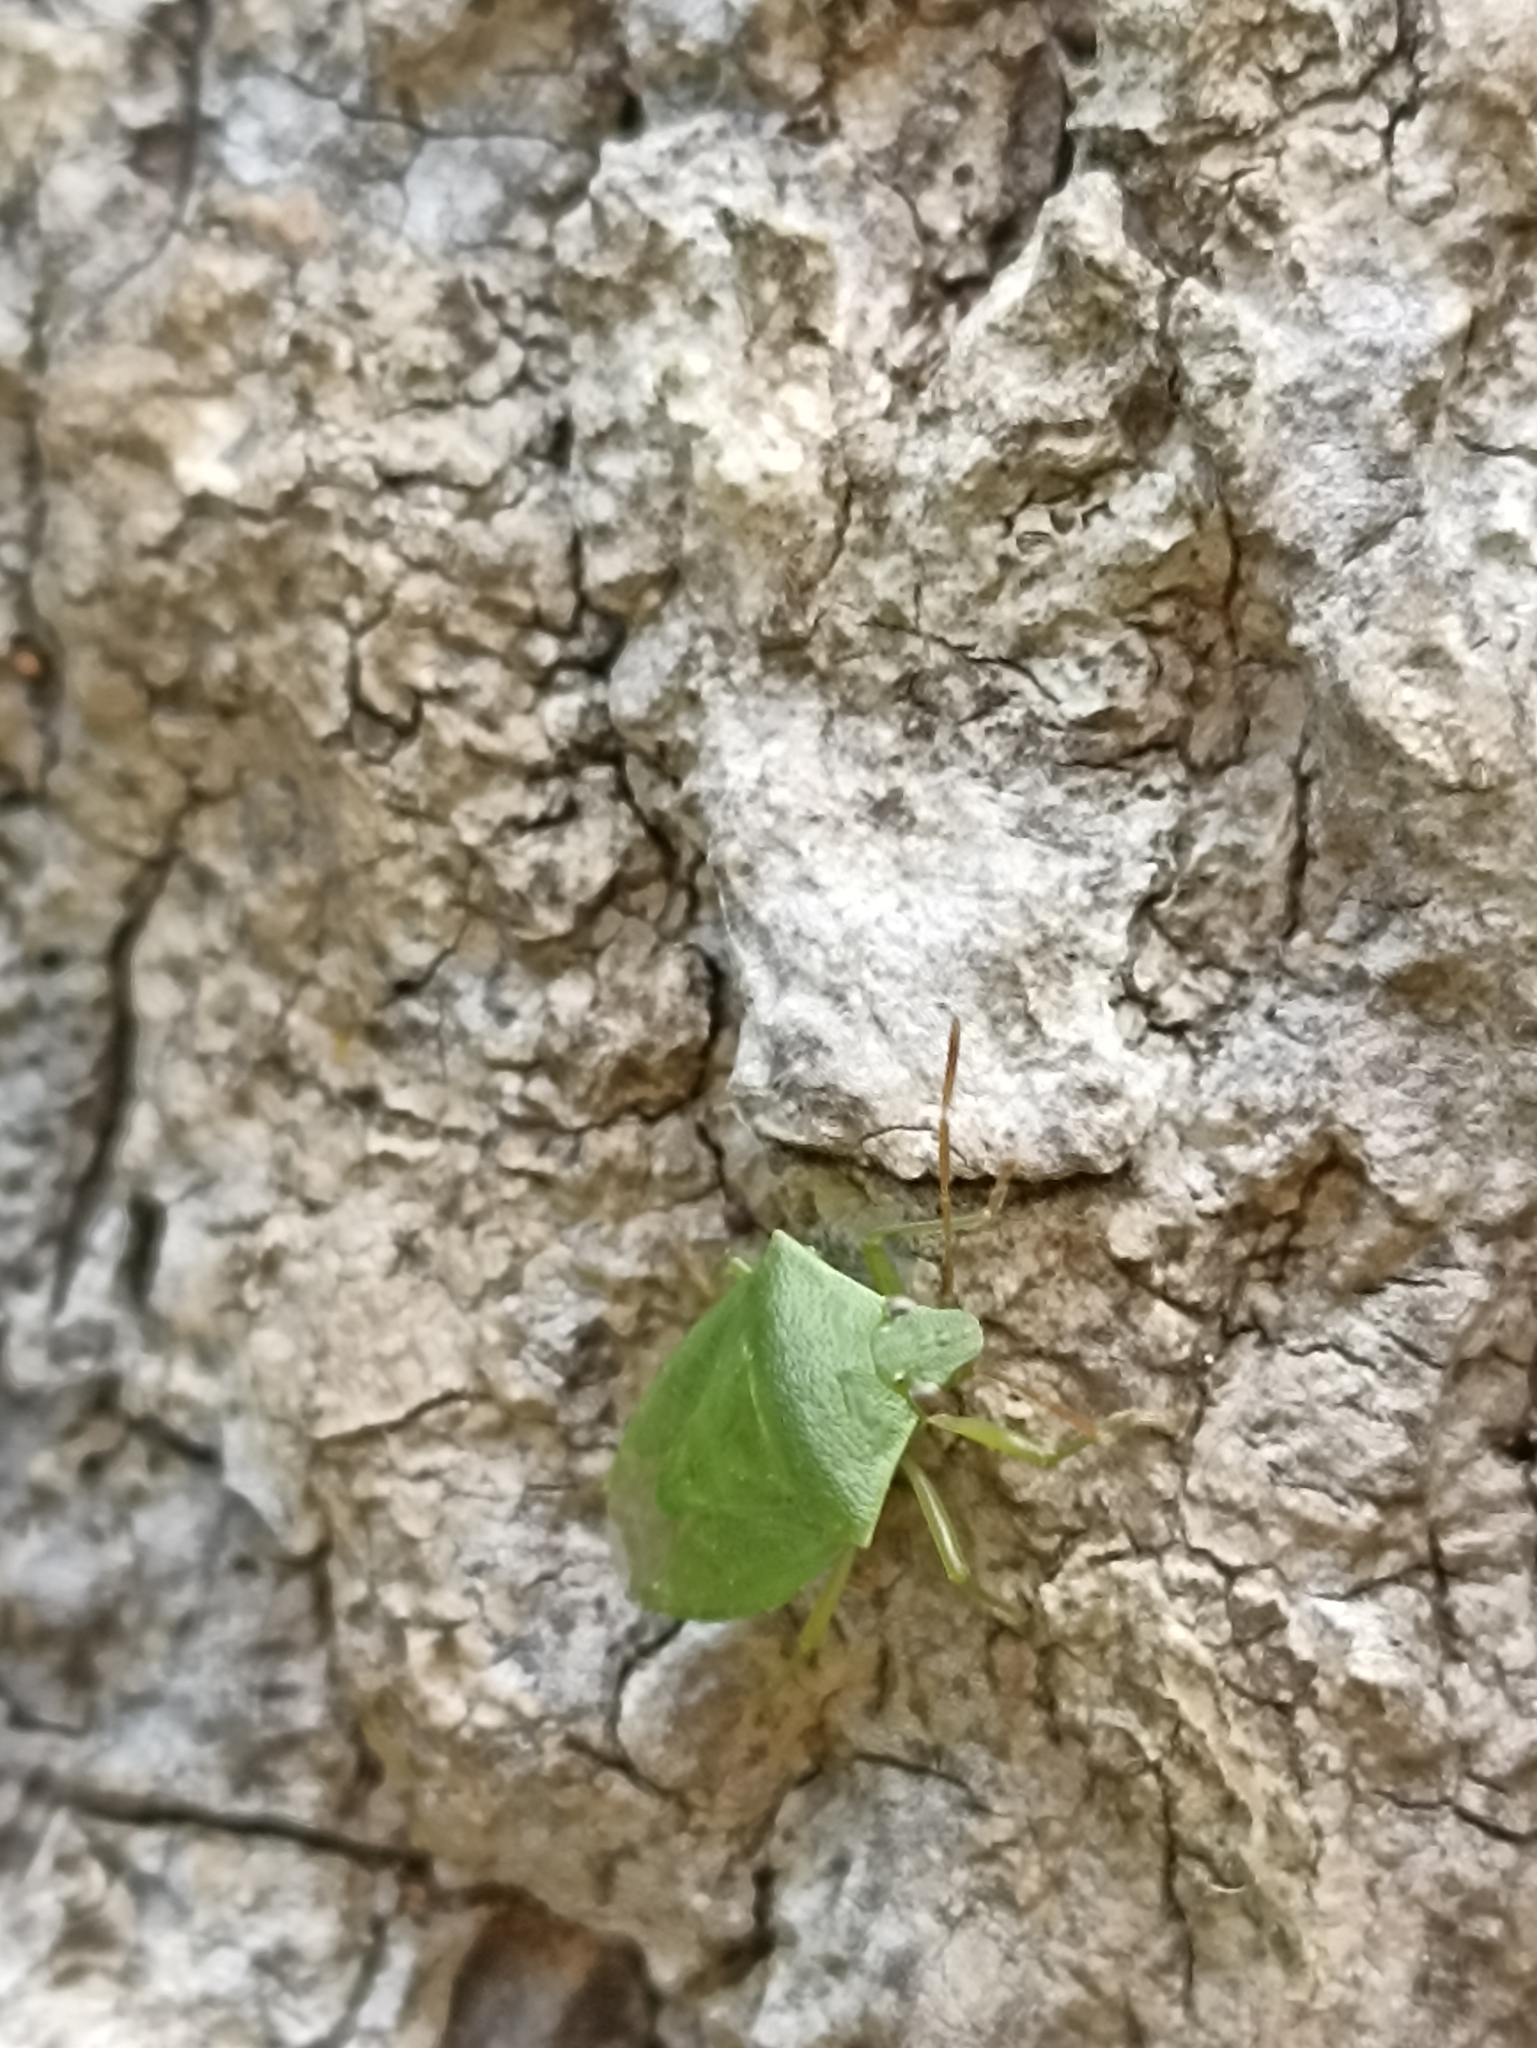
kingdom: Animalia
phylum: Arthropoda
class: Insecta
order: Hemiptera
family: Pentatomidae
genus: Cuspicona
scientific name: Cuspicona simplex
